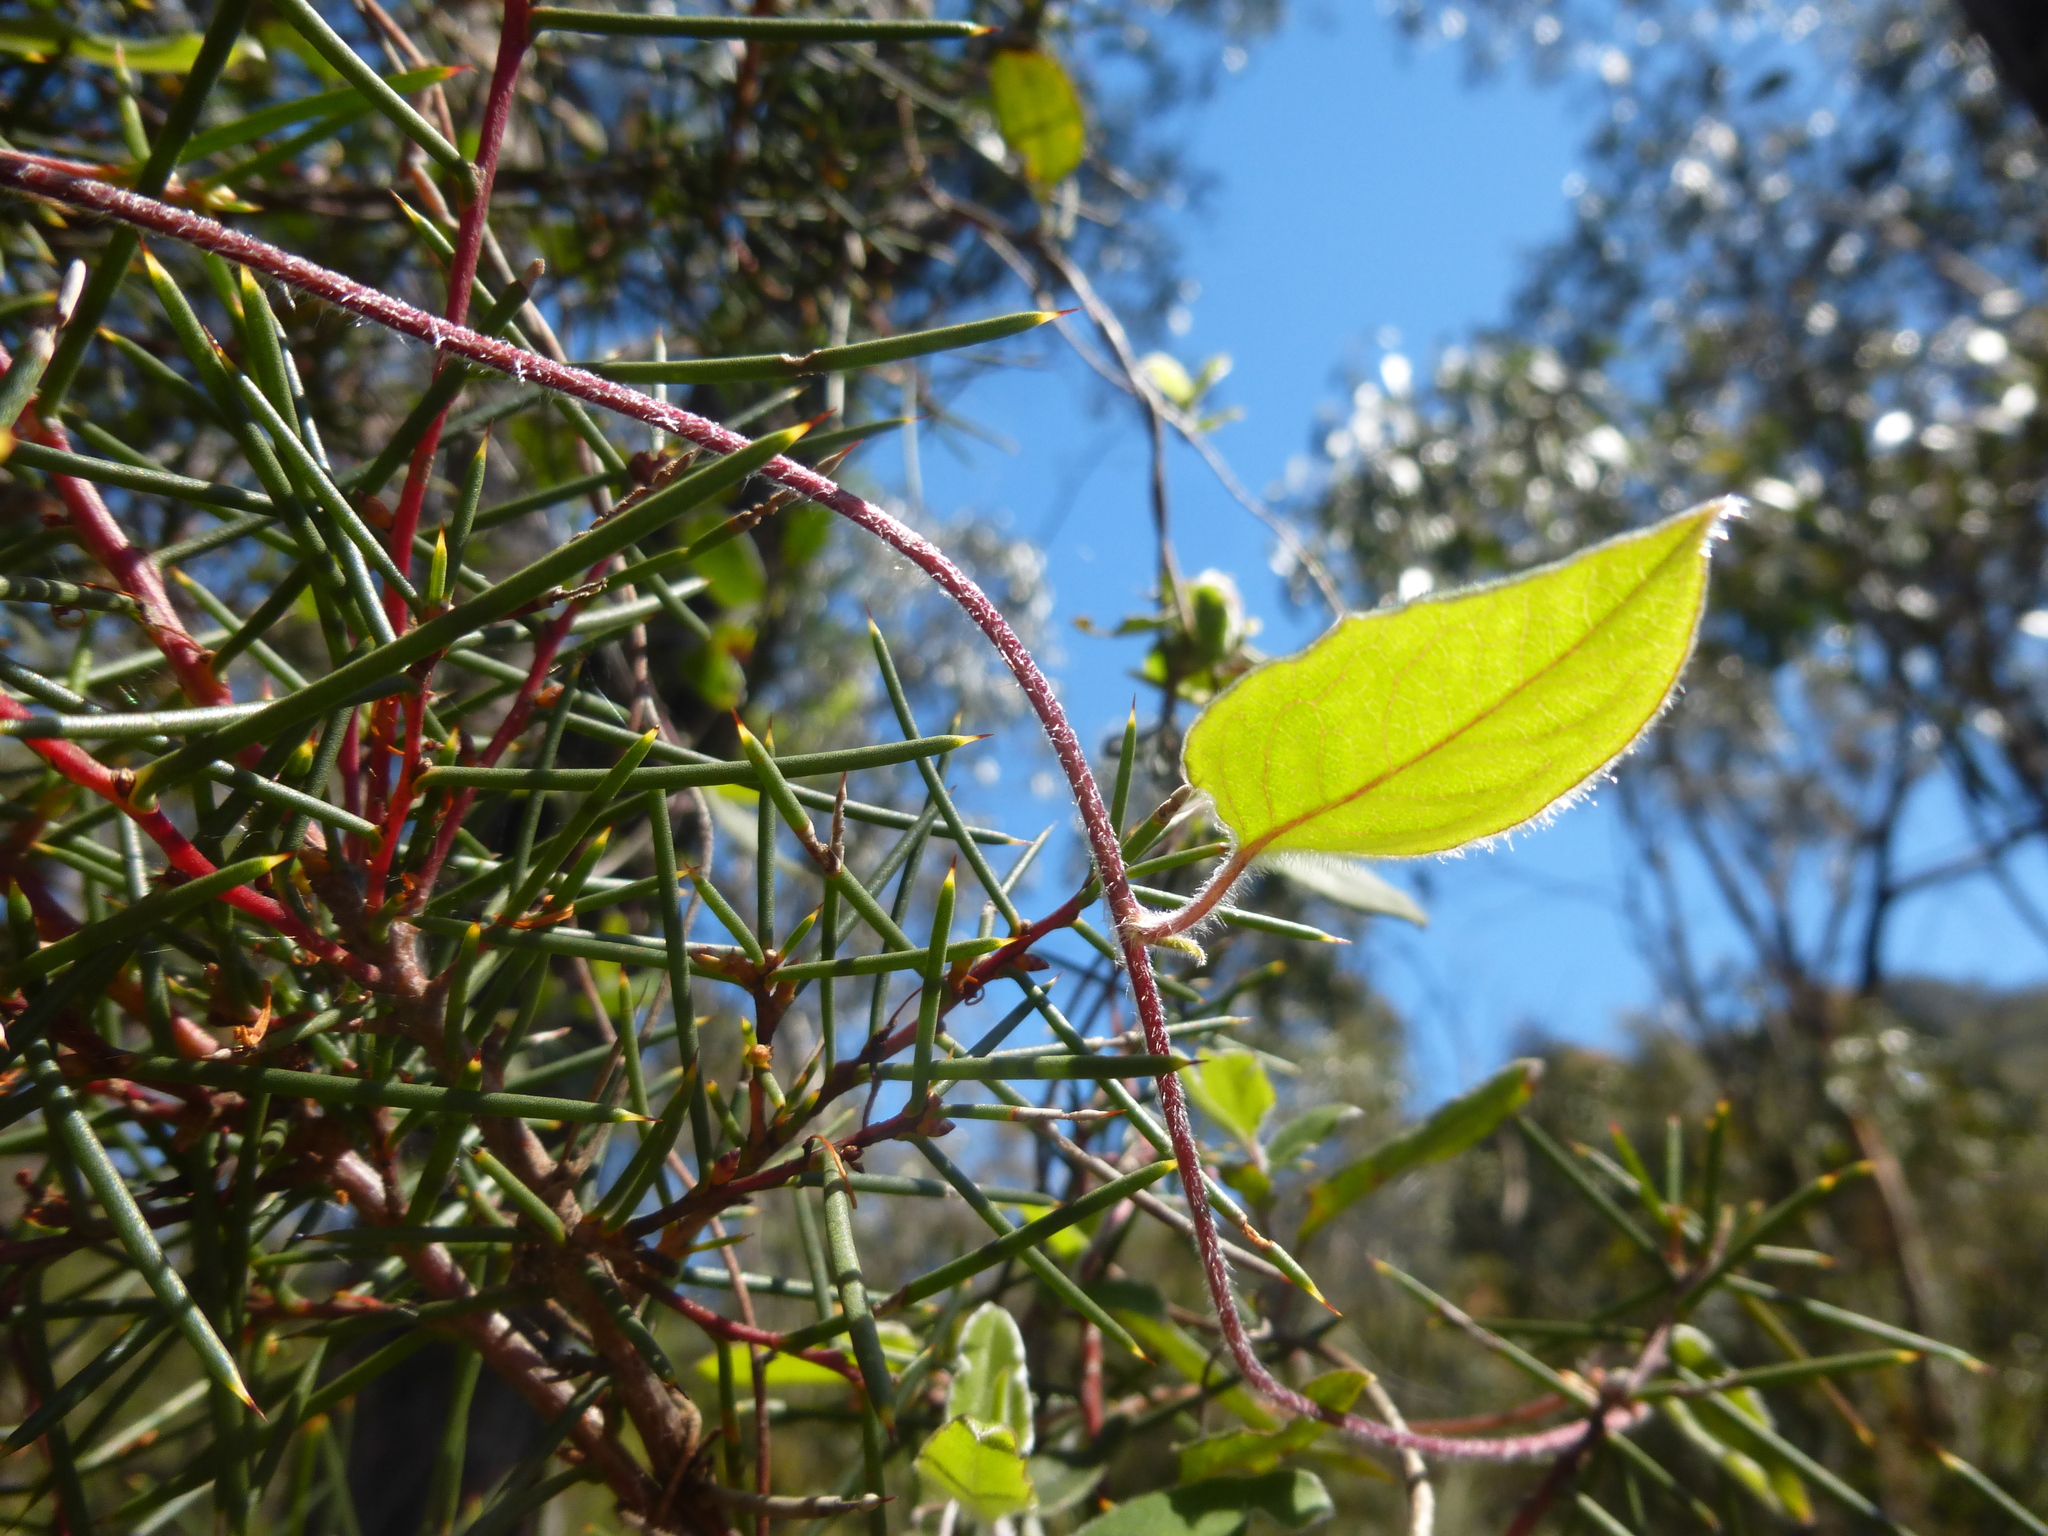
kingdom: Plantae
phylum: Tracheophyta
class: Magnoliopsida
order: Apiales
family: Pittosporaceae
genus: Marianthus
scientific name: Marianthus bignoniaceus
